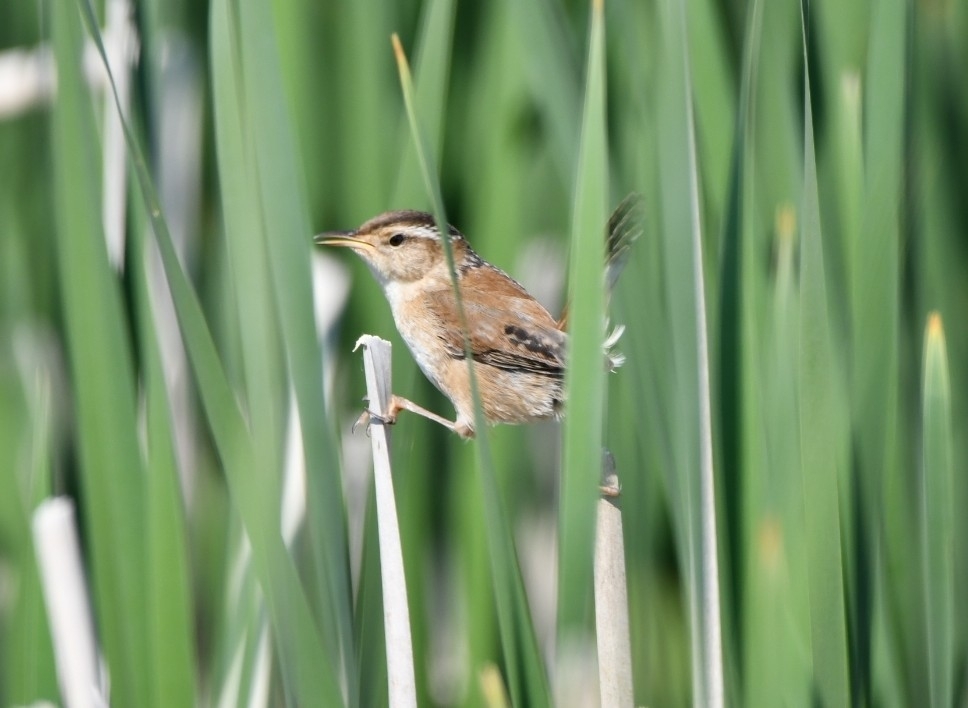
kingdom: Animalia
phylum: Chordata
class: Aves
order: Passeriformes
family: Troglodytidae
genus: Cistothorus
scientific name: Cistothorus palustris
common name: Marsh wren
